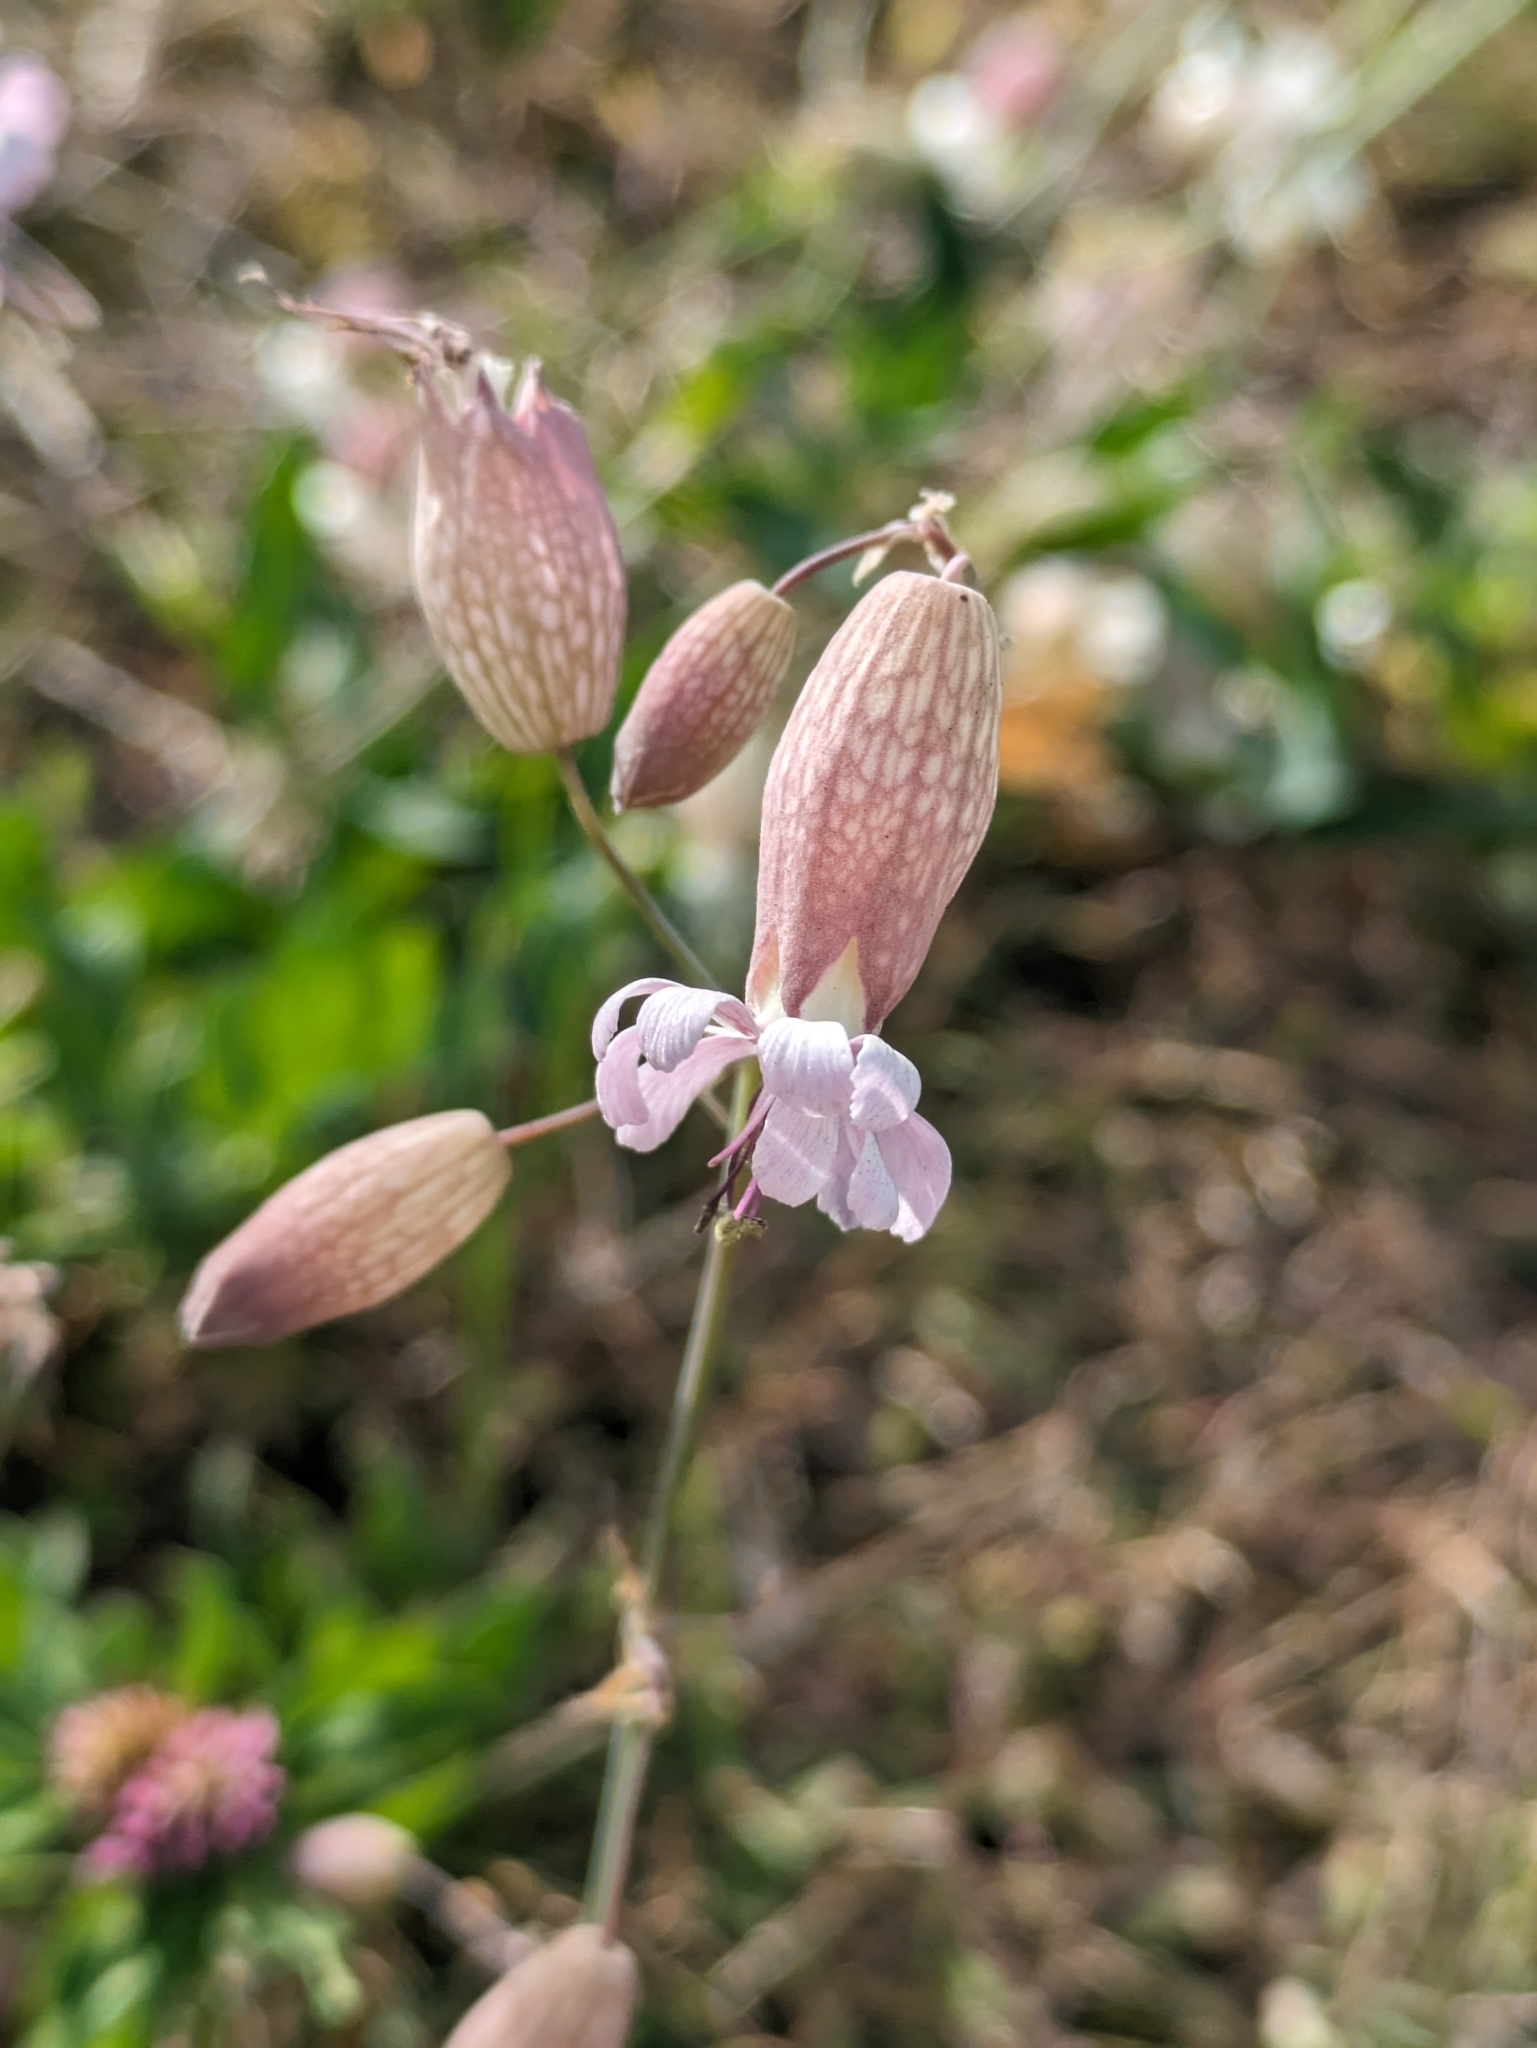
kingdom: Plantae
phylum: Tracheophyta
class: Magnoliopsida
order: Caryophyllales
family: Caryophyllaceae
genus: Silene
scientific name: Silene vulgaris
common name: Bladder campion
